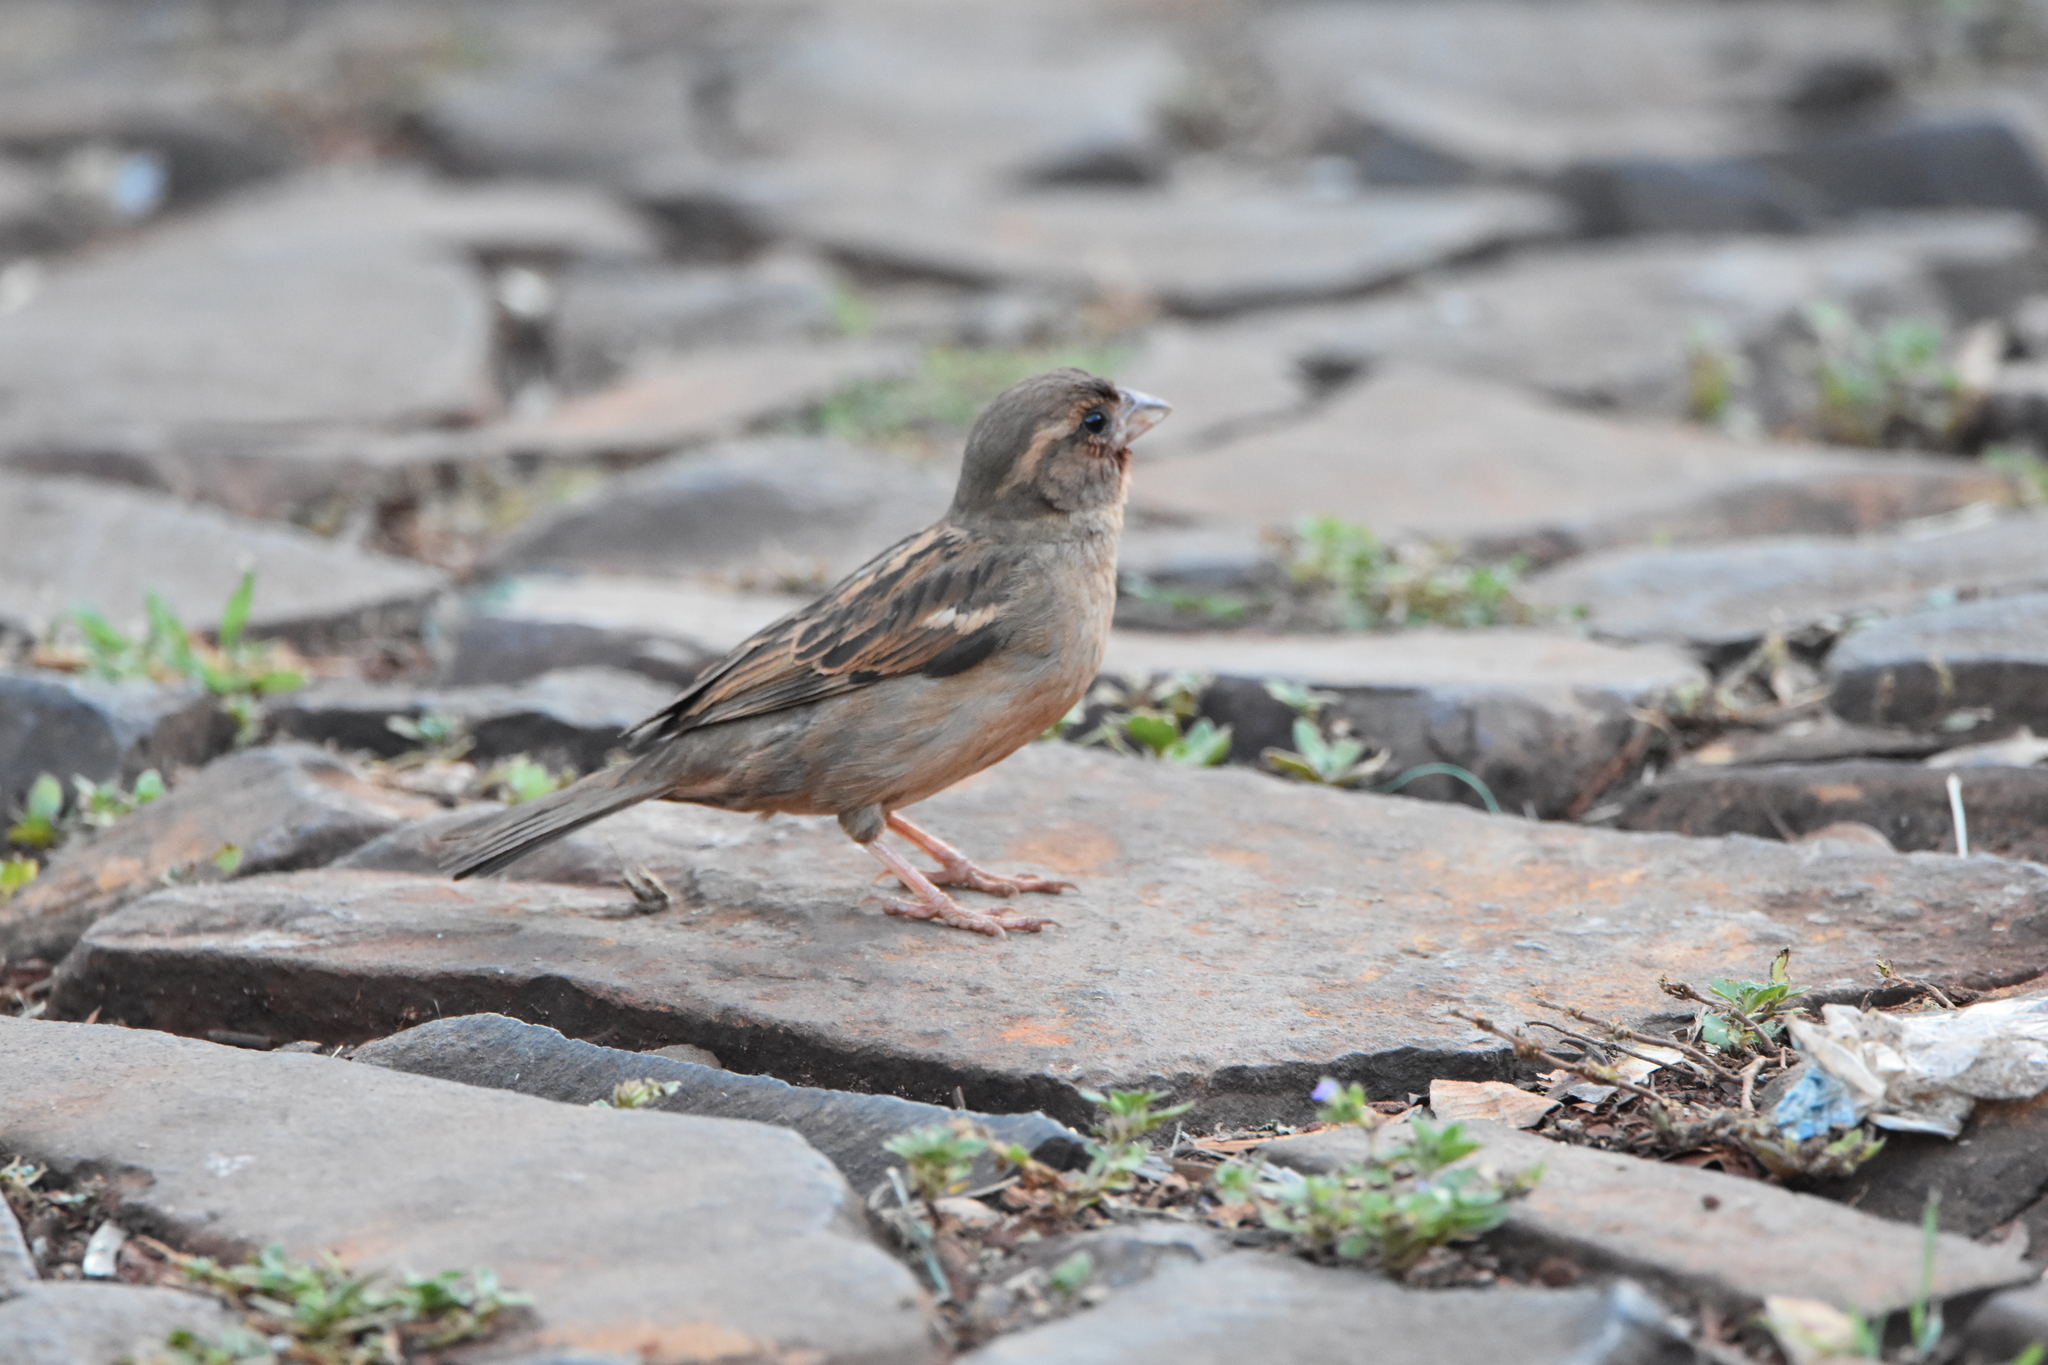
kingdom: Animalia
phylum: Chordata
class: Aves
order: Passeriformes
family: Passeridae
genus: Passer
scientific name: Passer domesticus
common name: House sparrow
